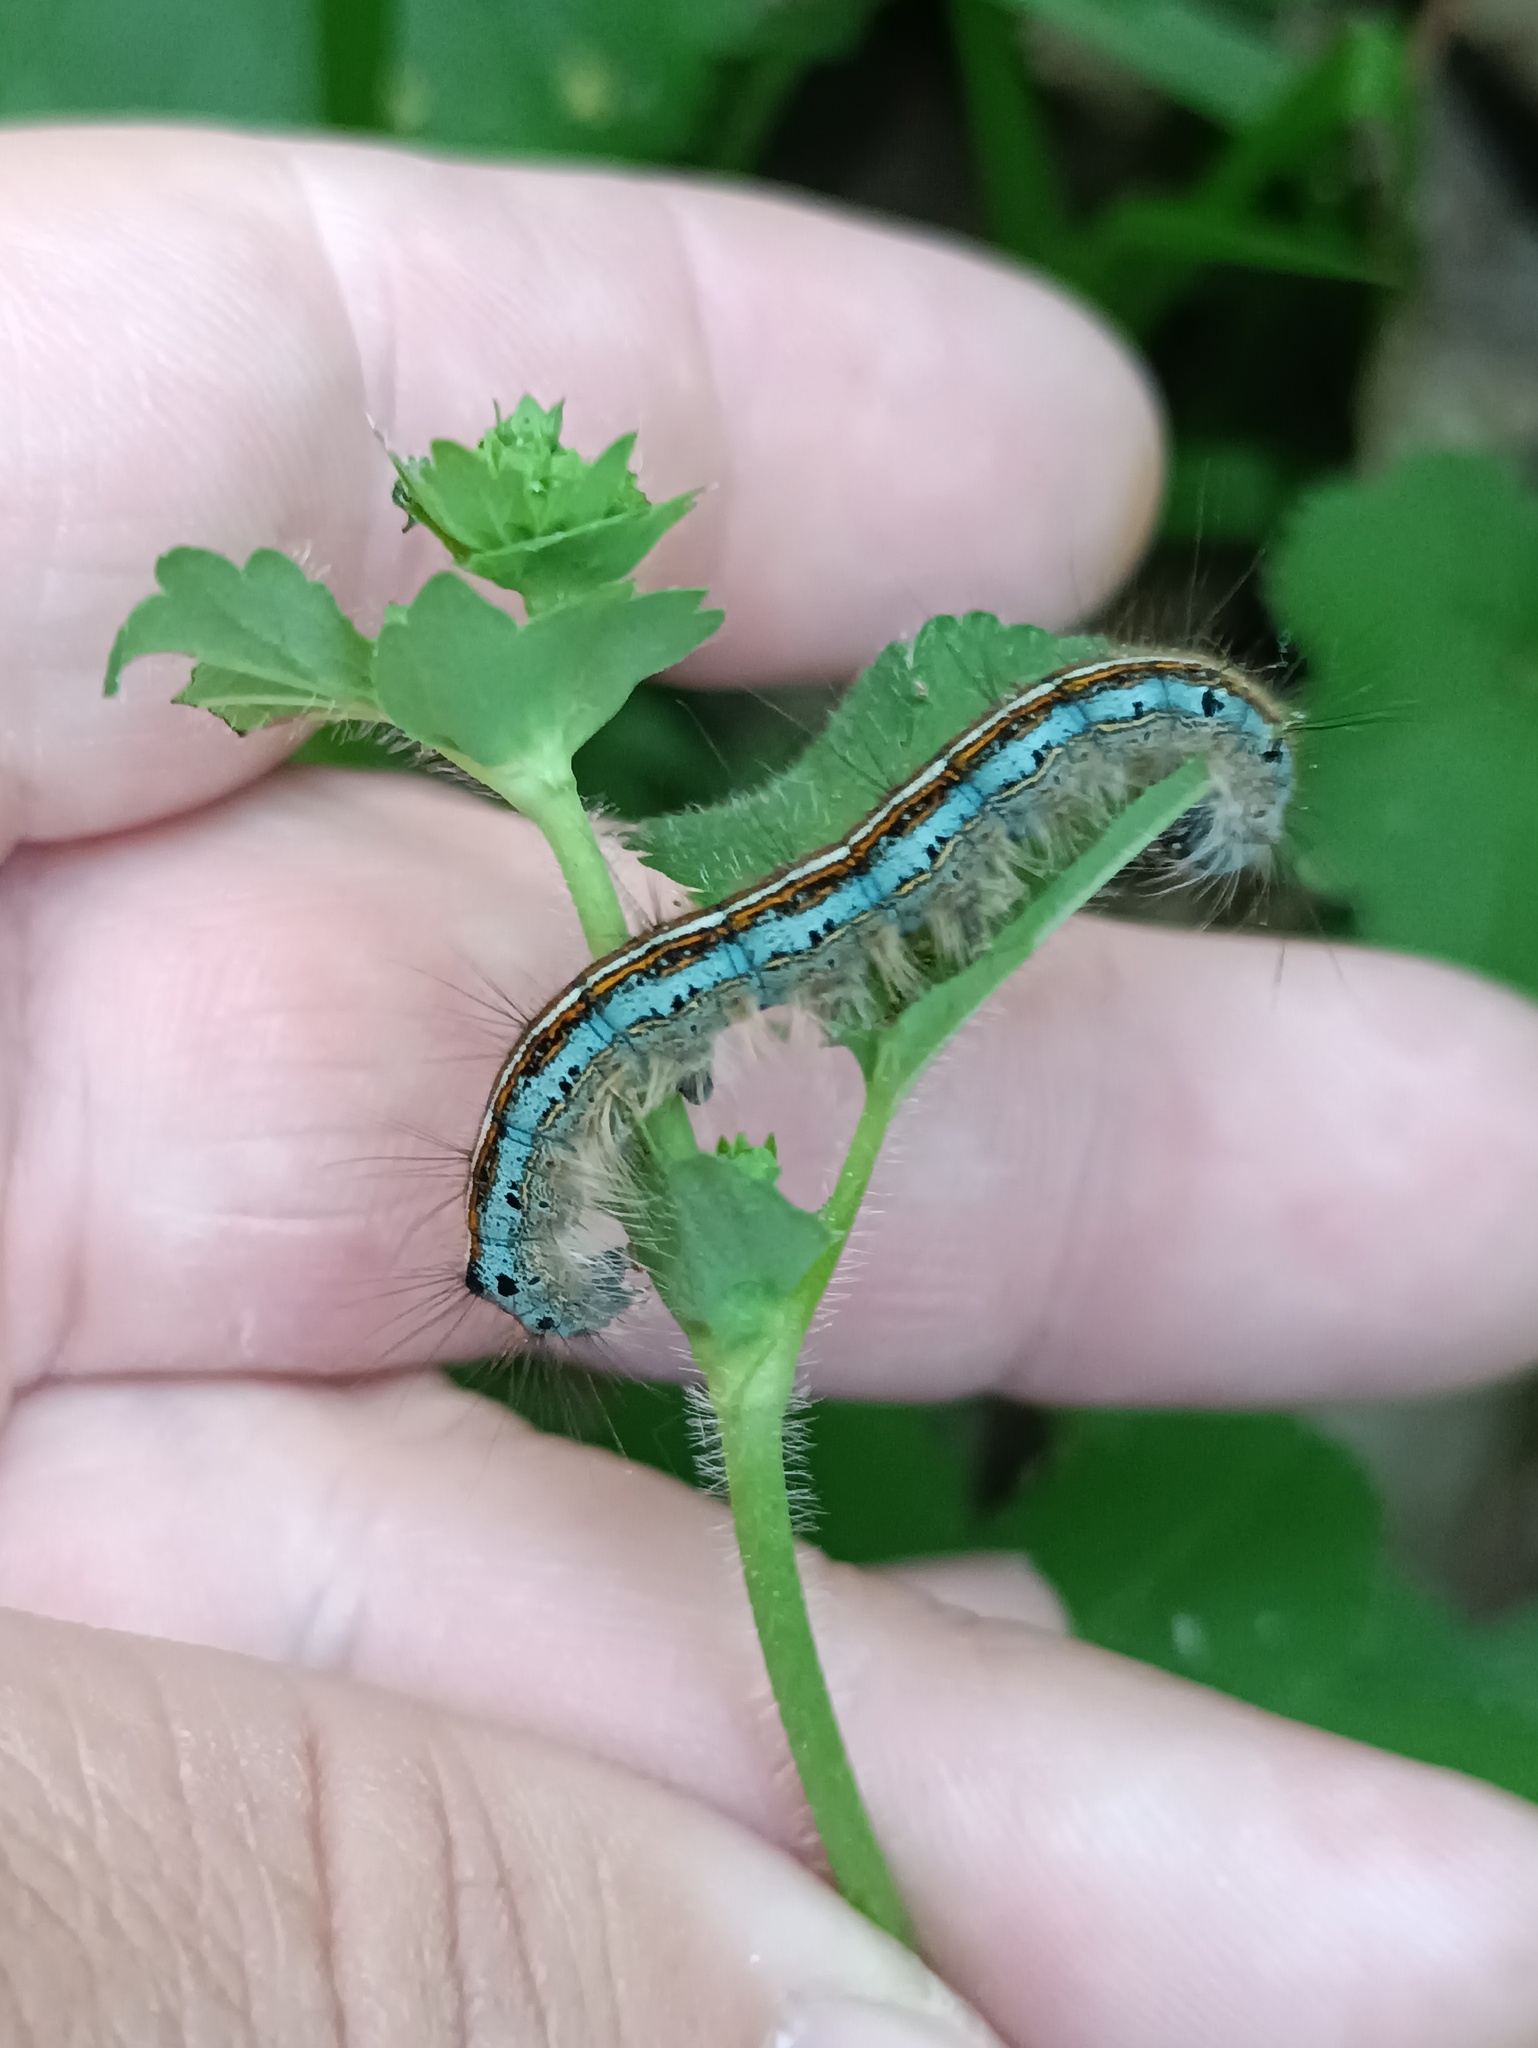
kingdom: Animalia
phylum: Arthropoda
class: Insecta
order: Lepidoptera
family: Lasiocampidae
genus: Malacosoma
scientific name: Malacosoma neustria
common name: The lackey
